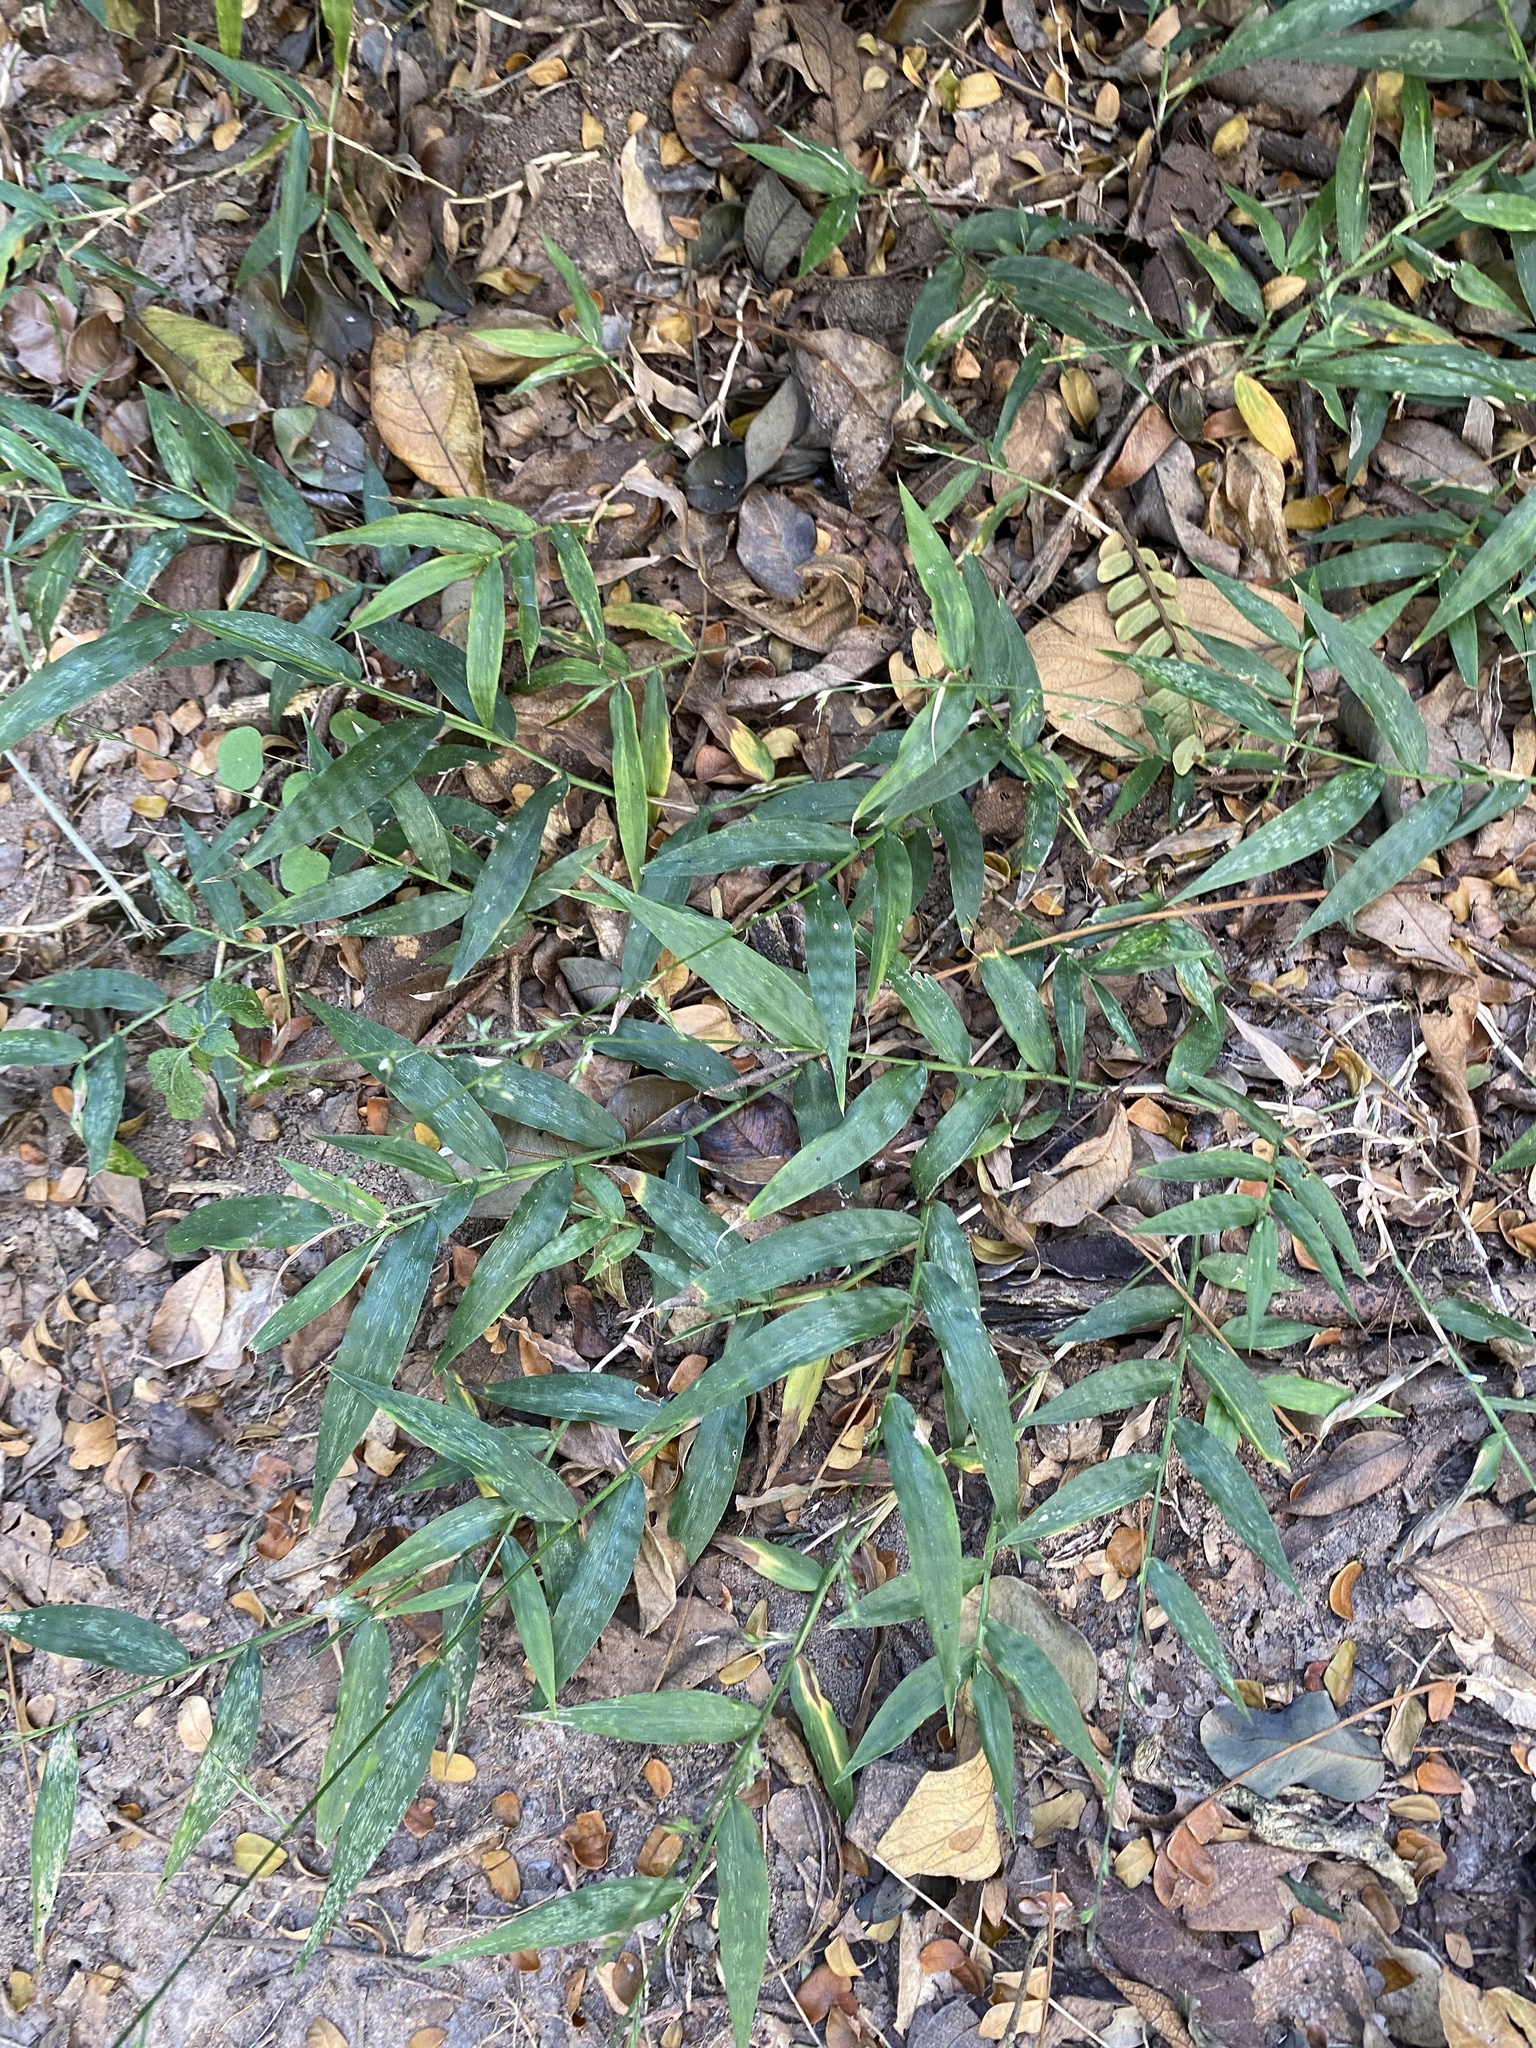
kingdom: Plantae
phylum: Tracheophyta
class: Liliopsida
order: Poales
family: Poaceae
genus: Oplismenus
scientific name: Oplismenus hirtellus
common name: Basketgrass
